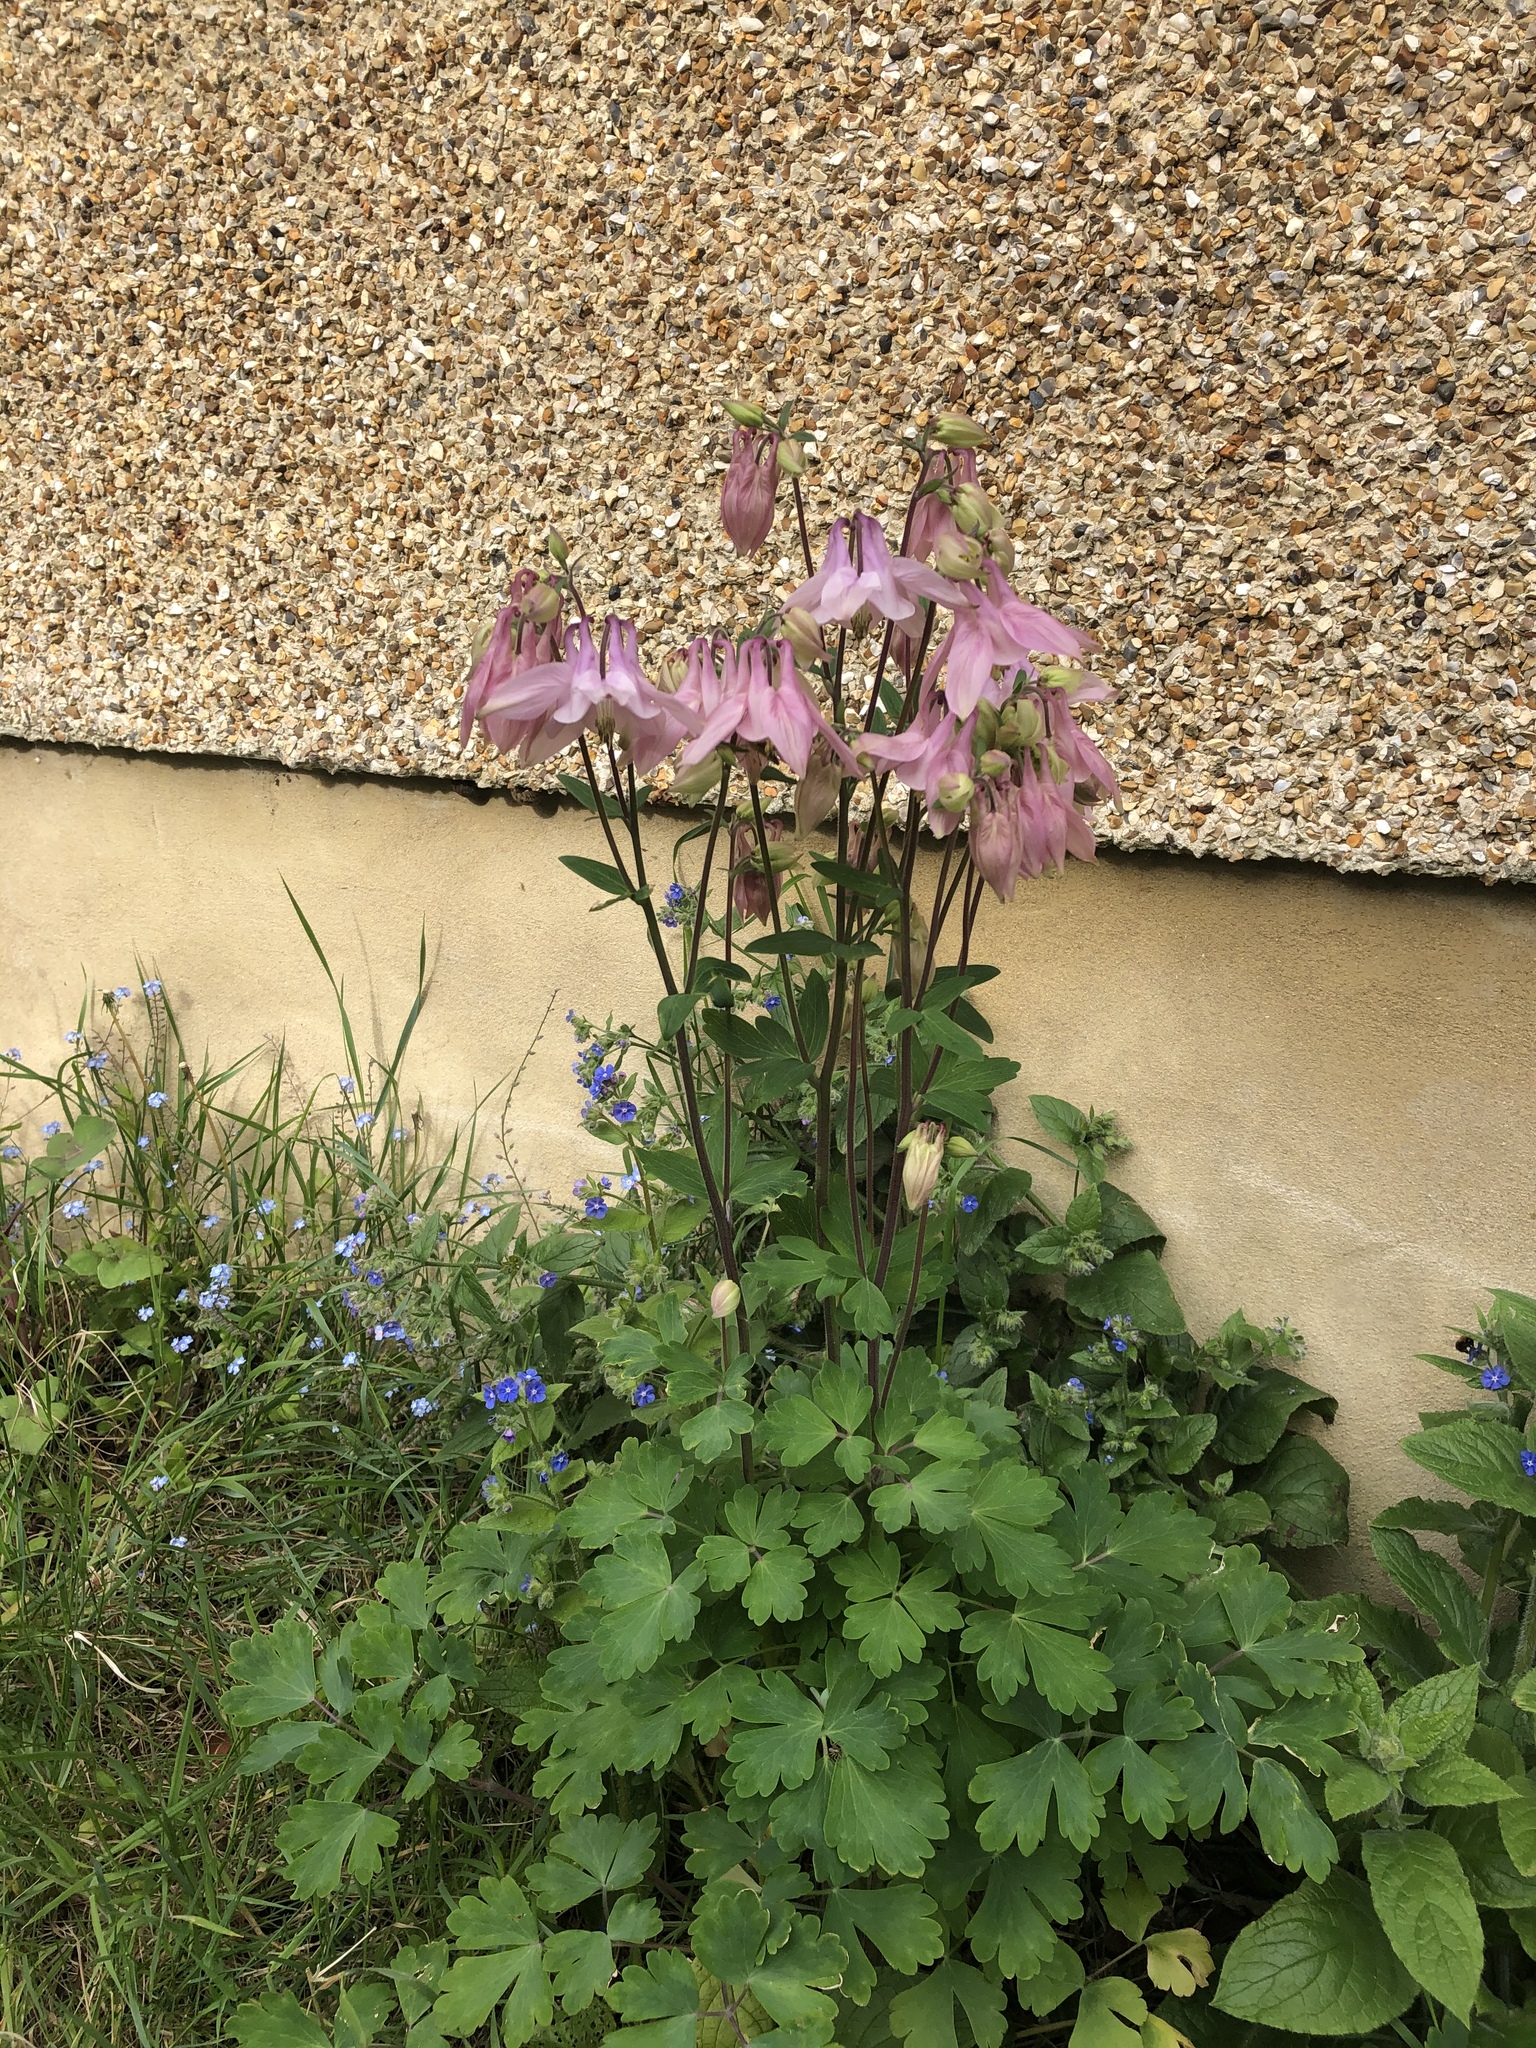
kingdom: Plantae
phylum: Tracheophyta
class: Magnoliopsida
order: Ranunculales
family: Ranunculaceae
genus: Aquilegia
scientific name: Aquilegia vulgaris
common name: Columbine
